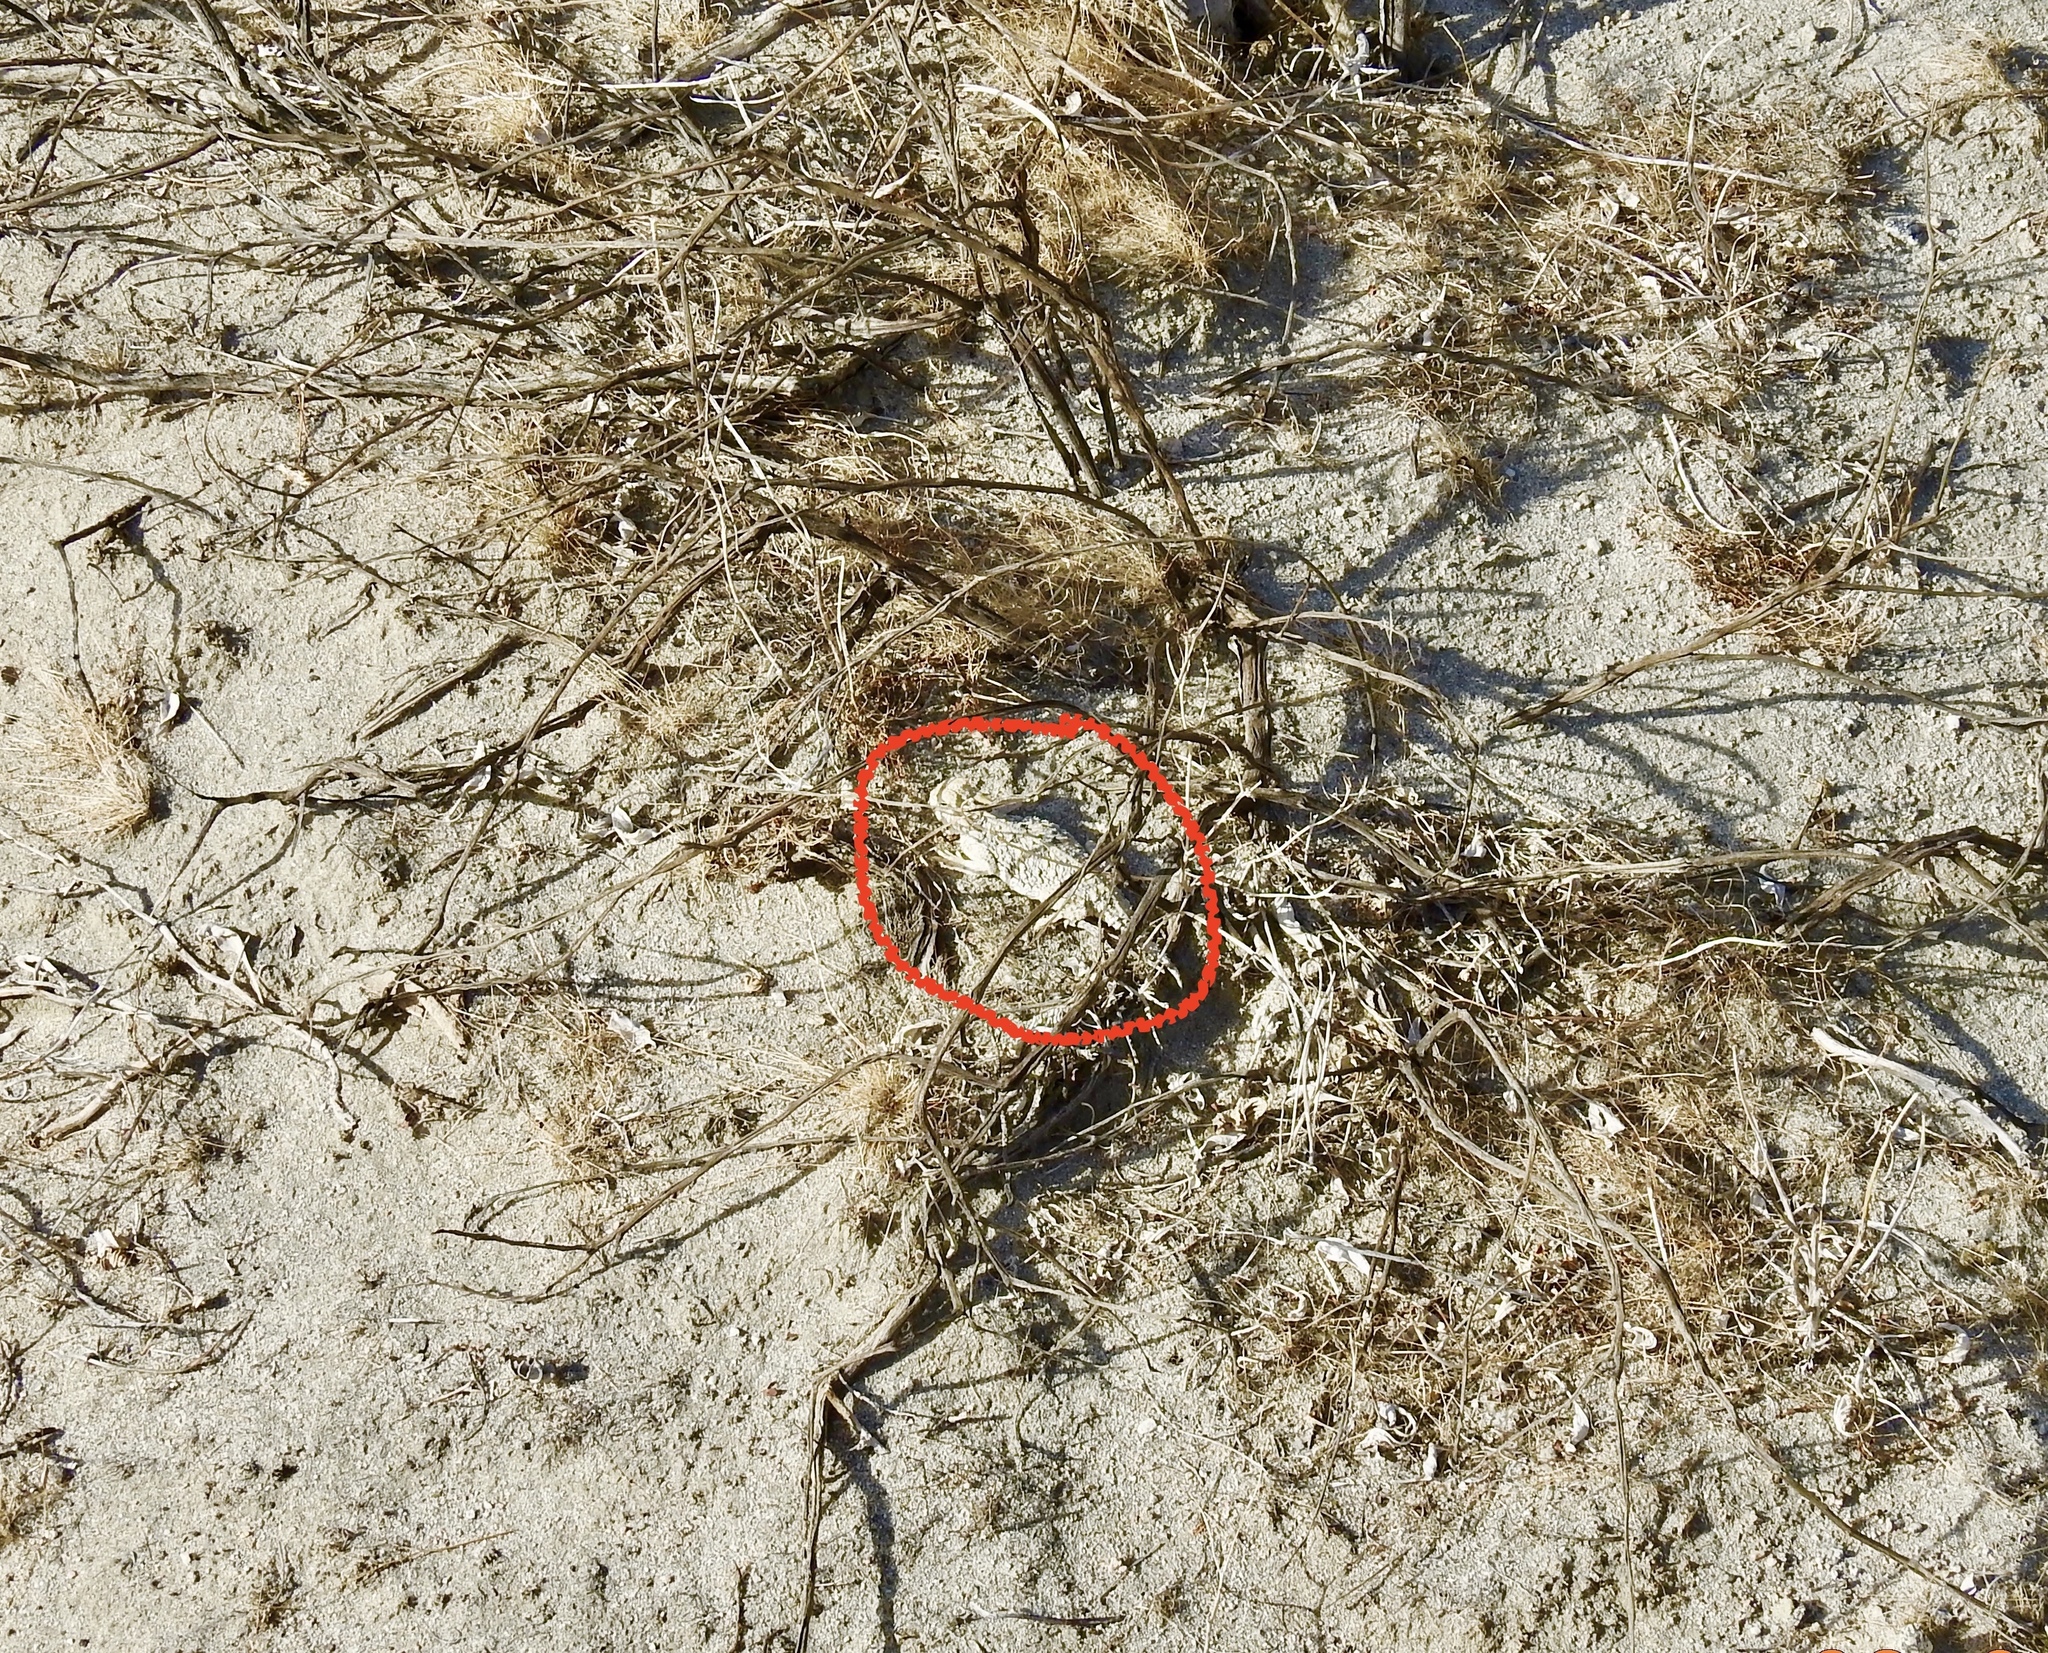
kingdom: Animalia
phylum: Chordata
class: Squamata
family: Phrynosomatidae
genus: Phrynosoma
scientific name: Phrynosoma platyrhinos
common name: Desert horned lizard
